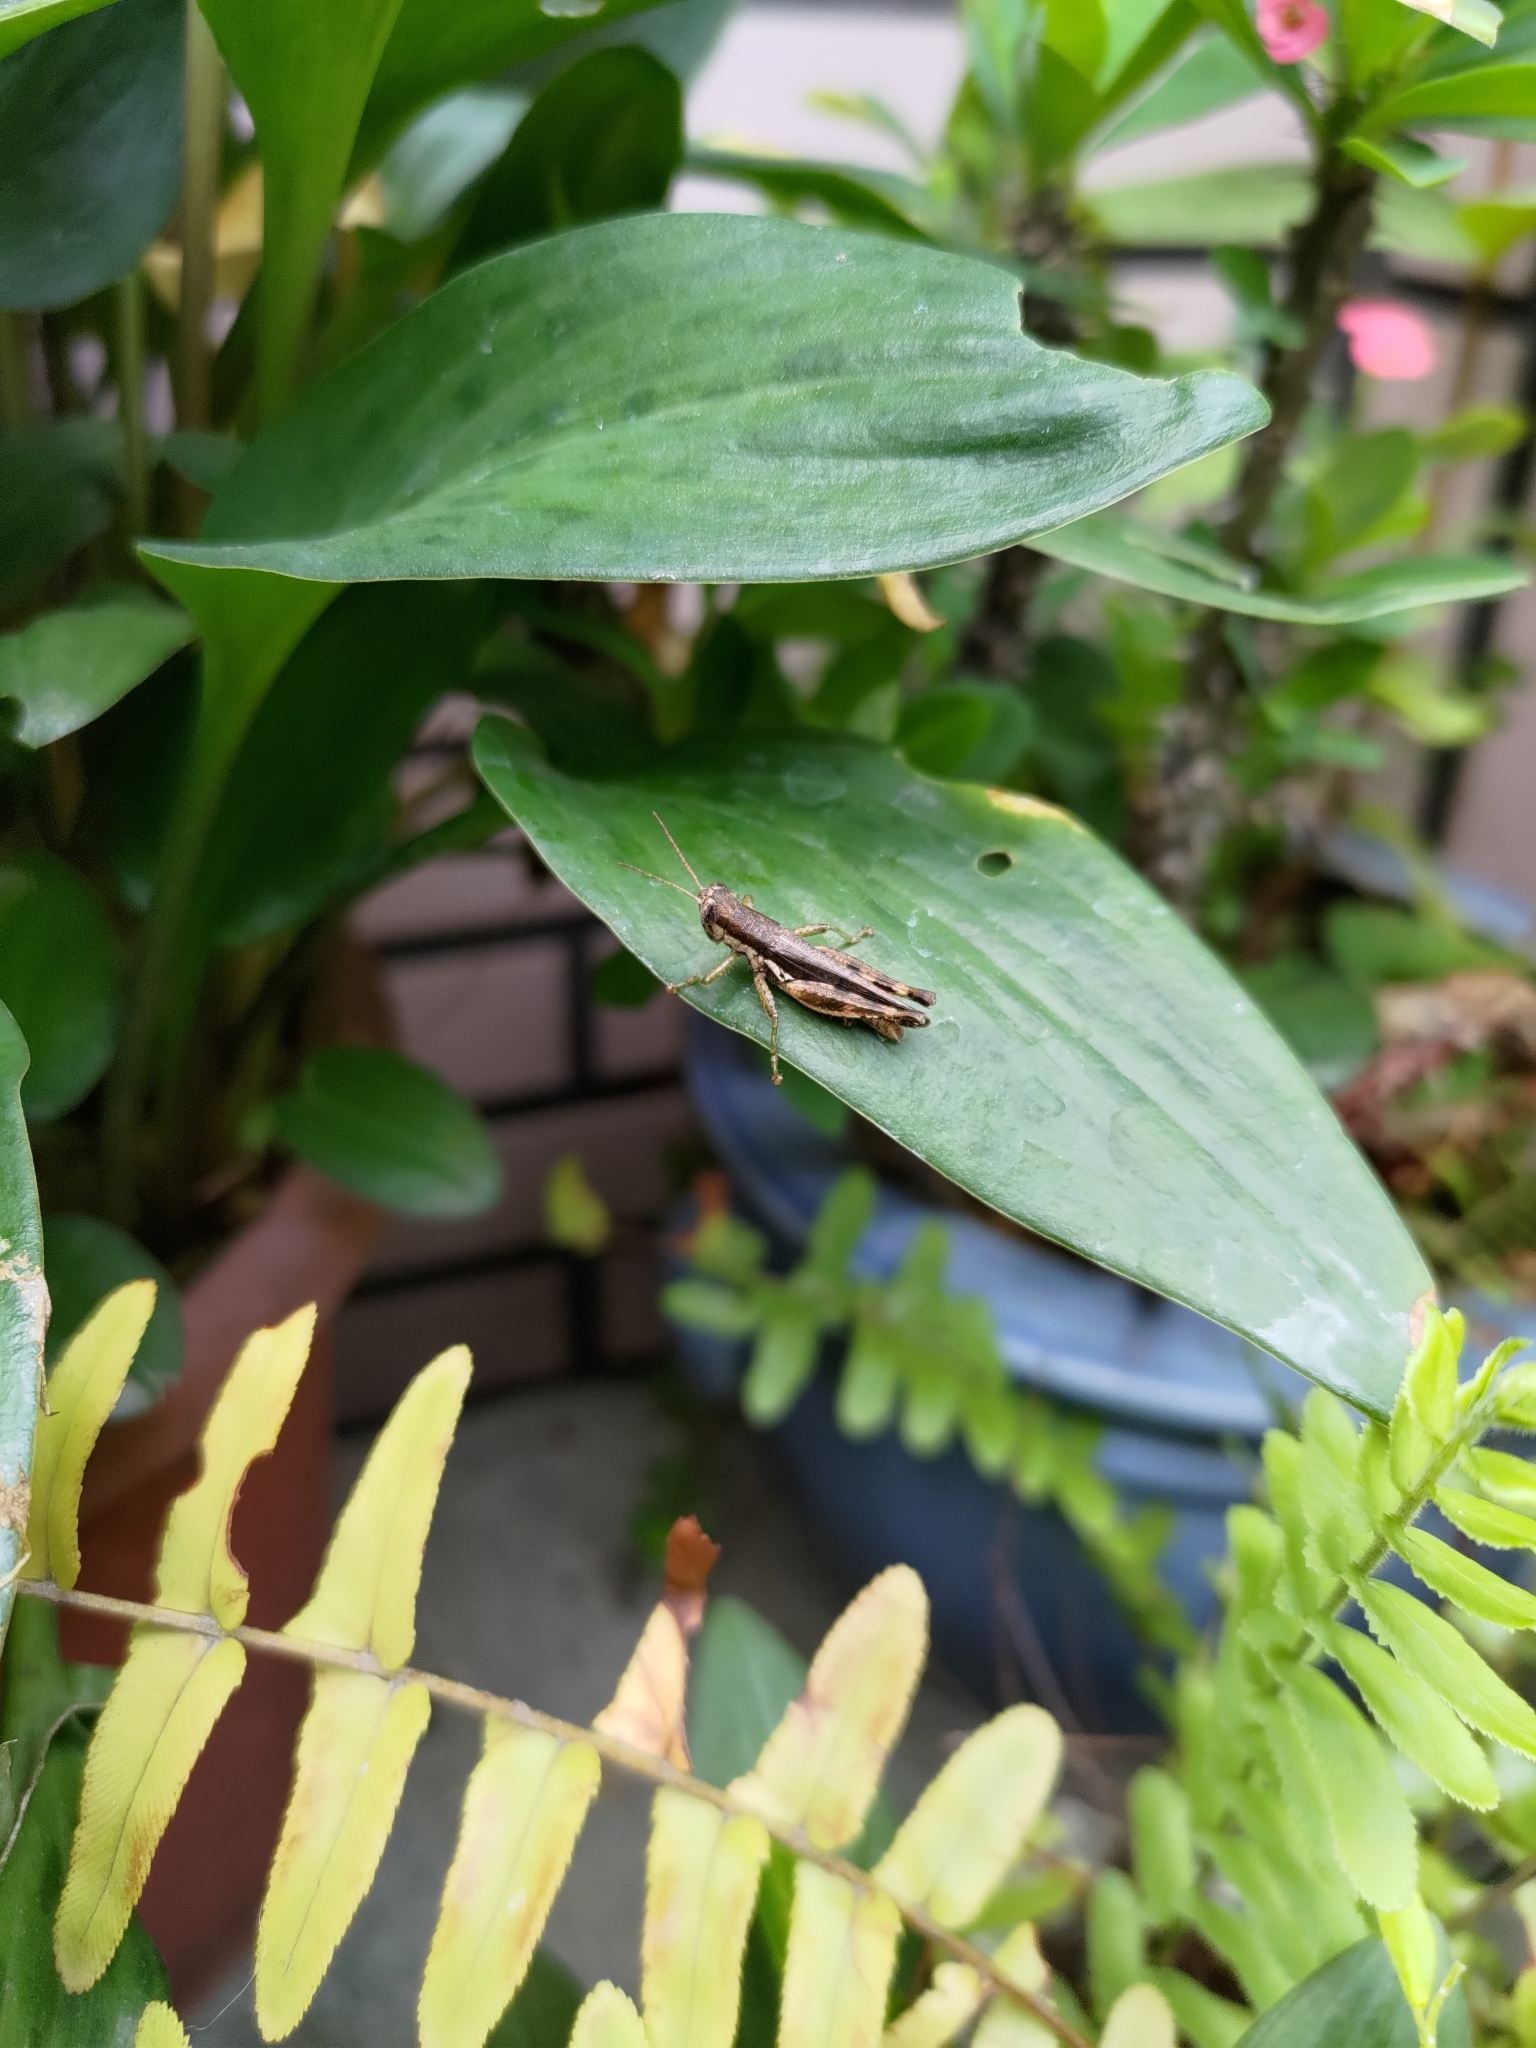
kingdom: Animalia
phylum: Arthropoda
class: Insecta
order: Orthoptera
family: Acrididae
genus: Pseudoxya
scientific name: Pseudoxya diminuta
